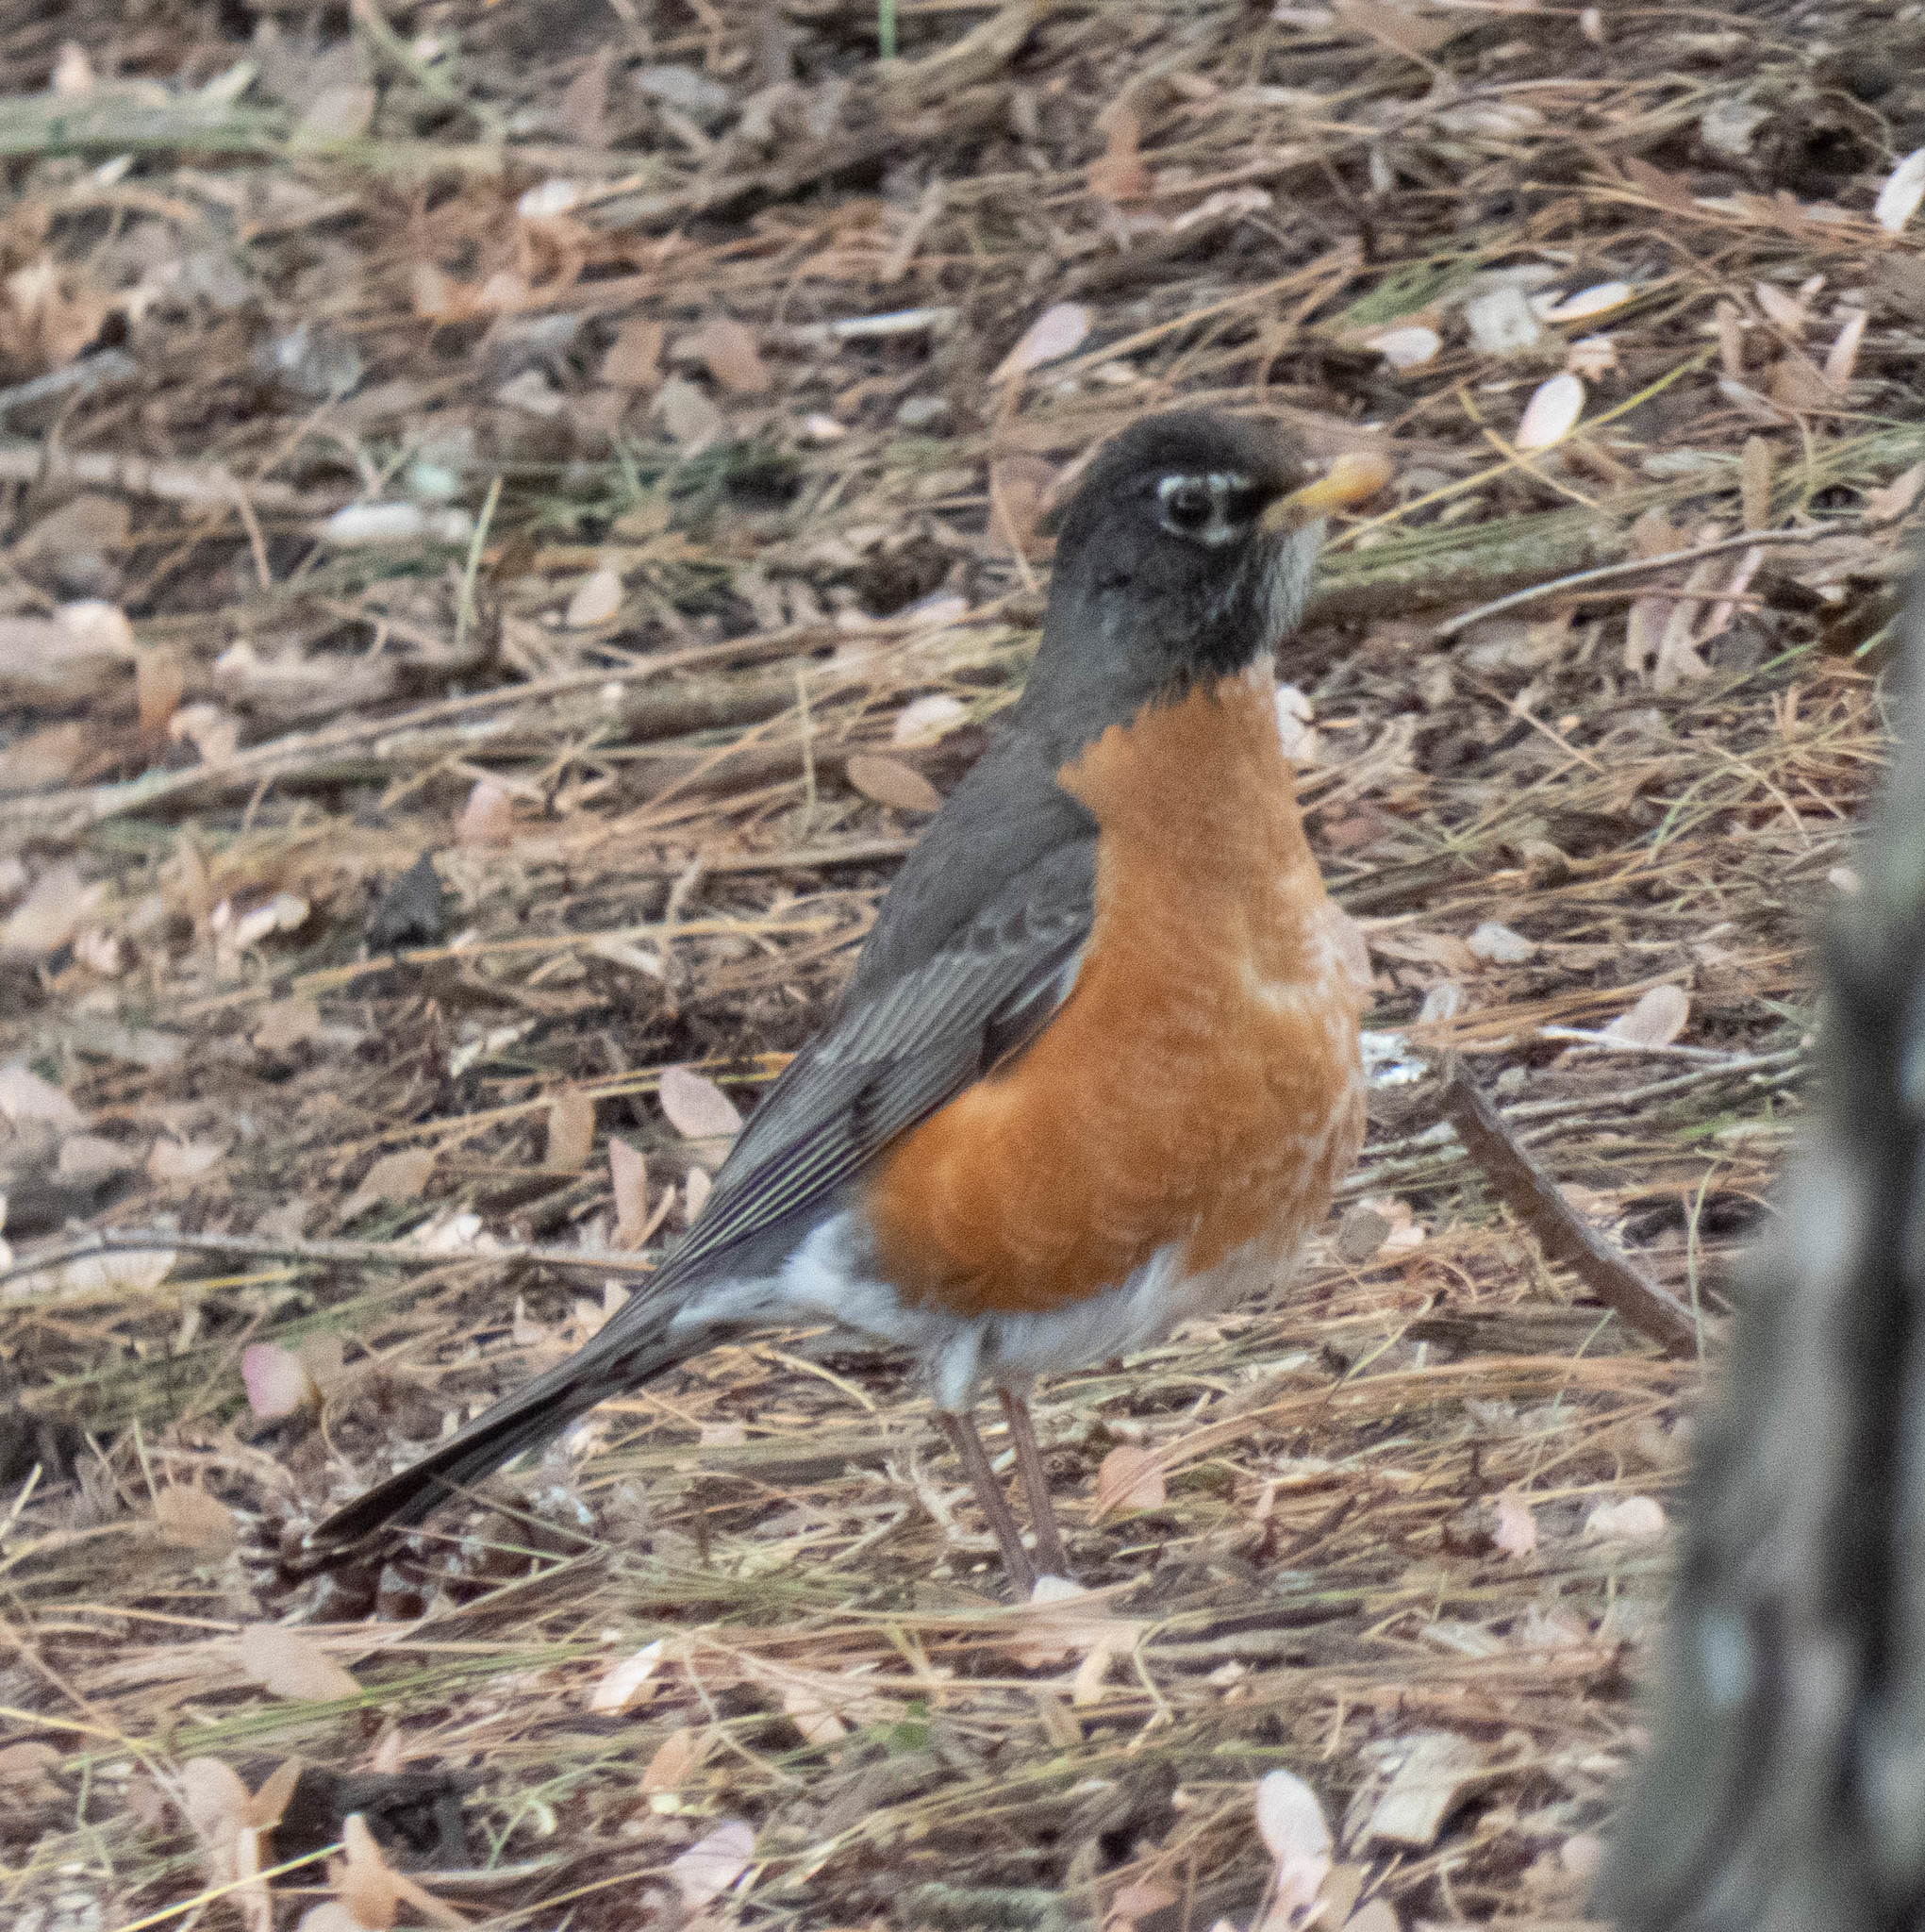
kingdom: Animalia
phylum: Chordata
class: Aves
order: Passeriformes
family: Turdidae
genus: Turdus
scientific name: Turdus migratorius
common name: American robin
